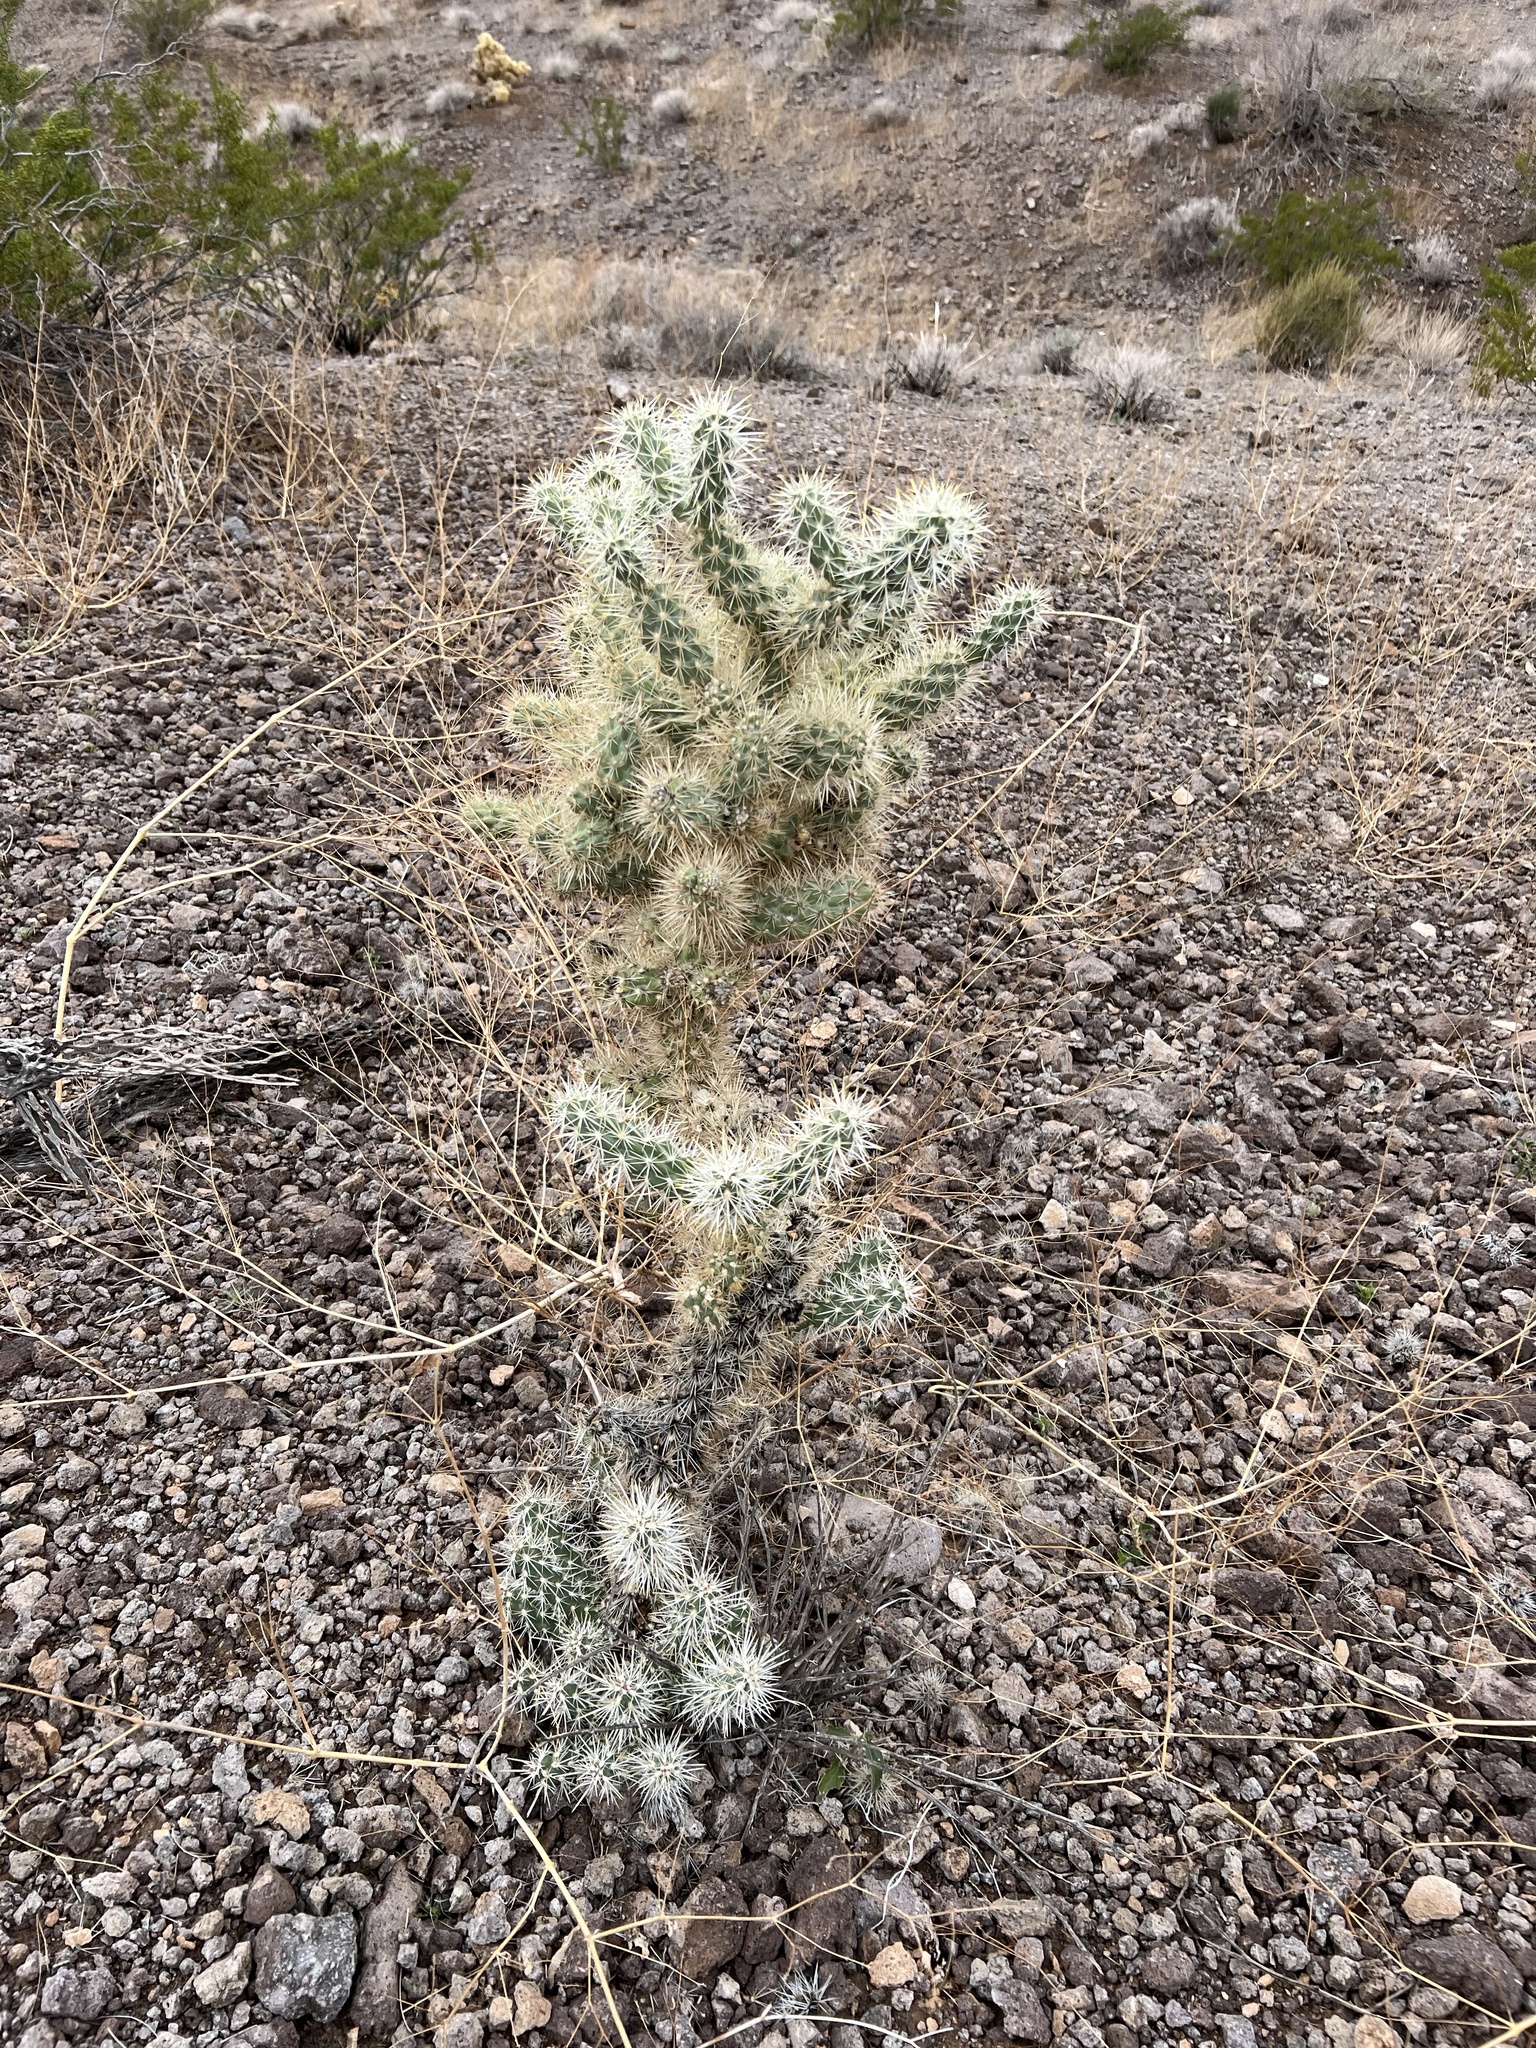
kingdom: Plantae
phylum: Tracheophyta
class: Magnoliopsida
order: Caryophyllales
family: Cactaceae
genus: Cylindropuntia
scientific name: Cylindropuntia echinocarpa
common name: Ground cholla
